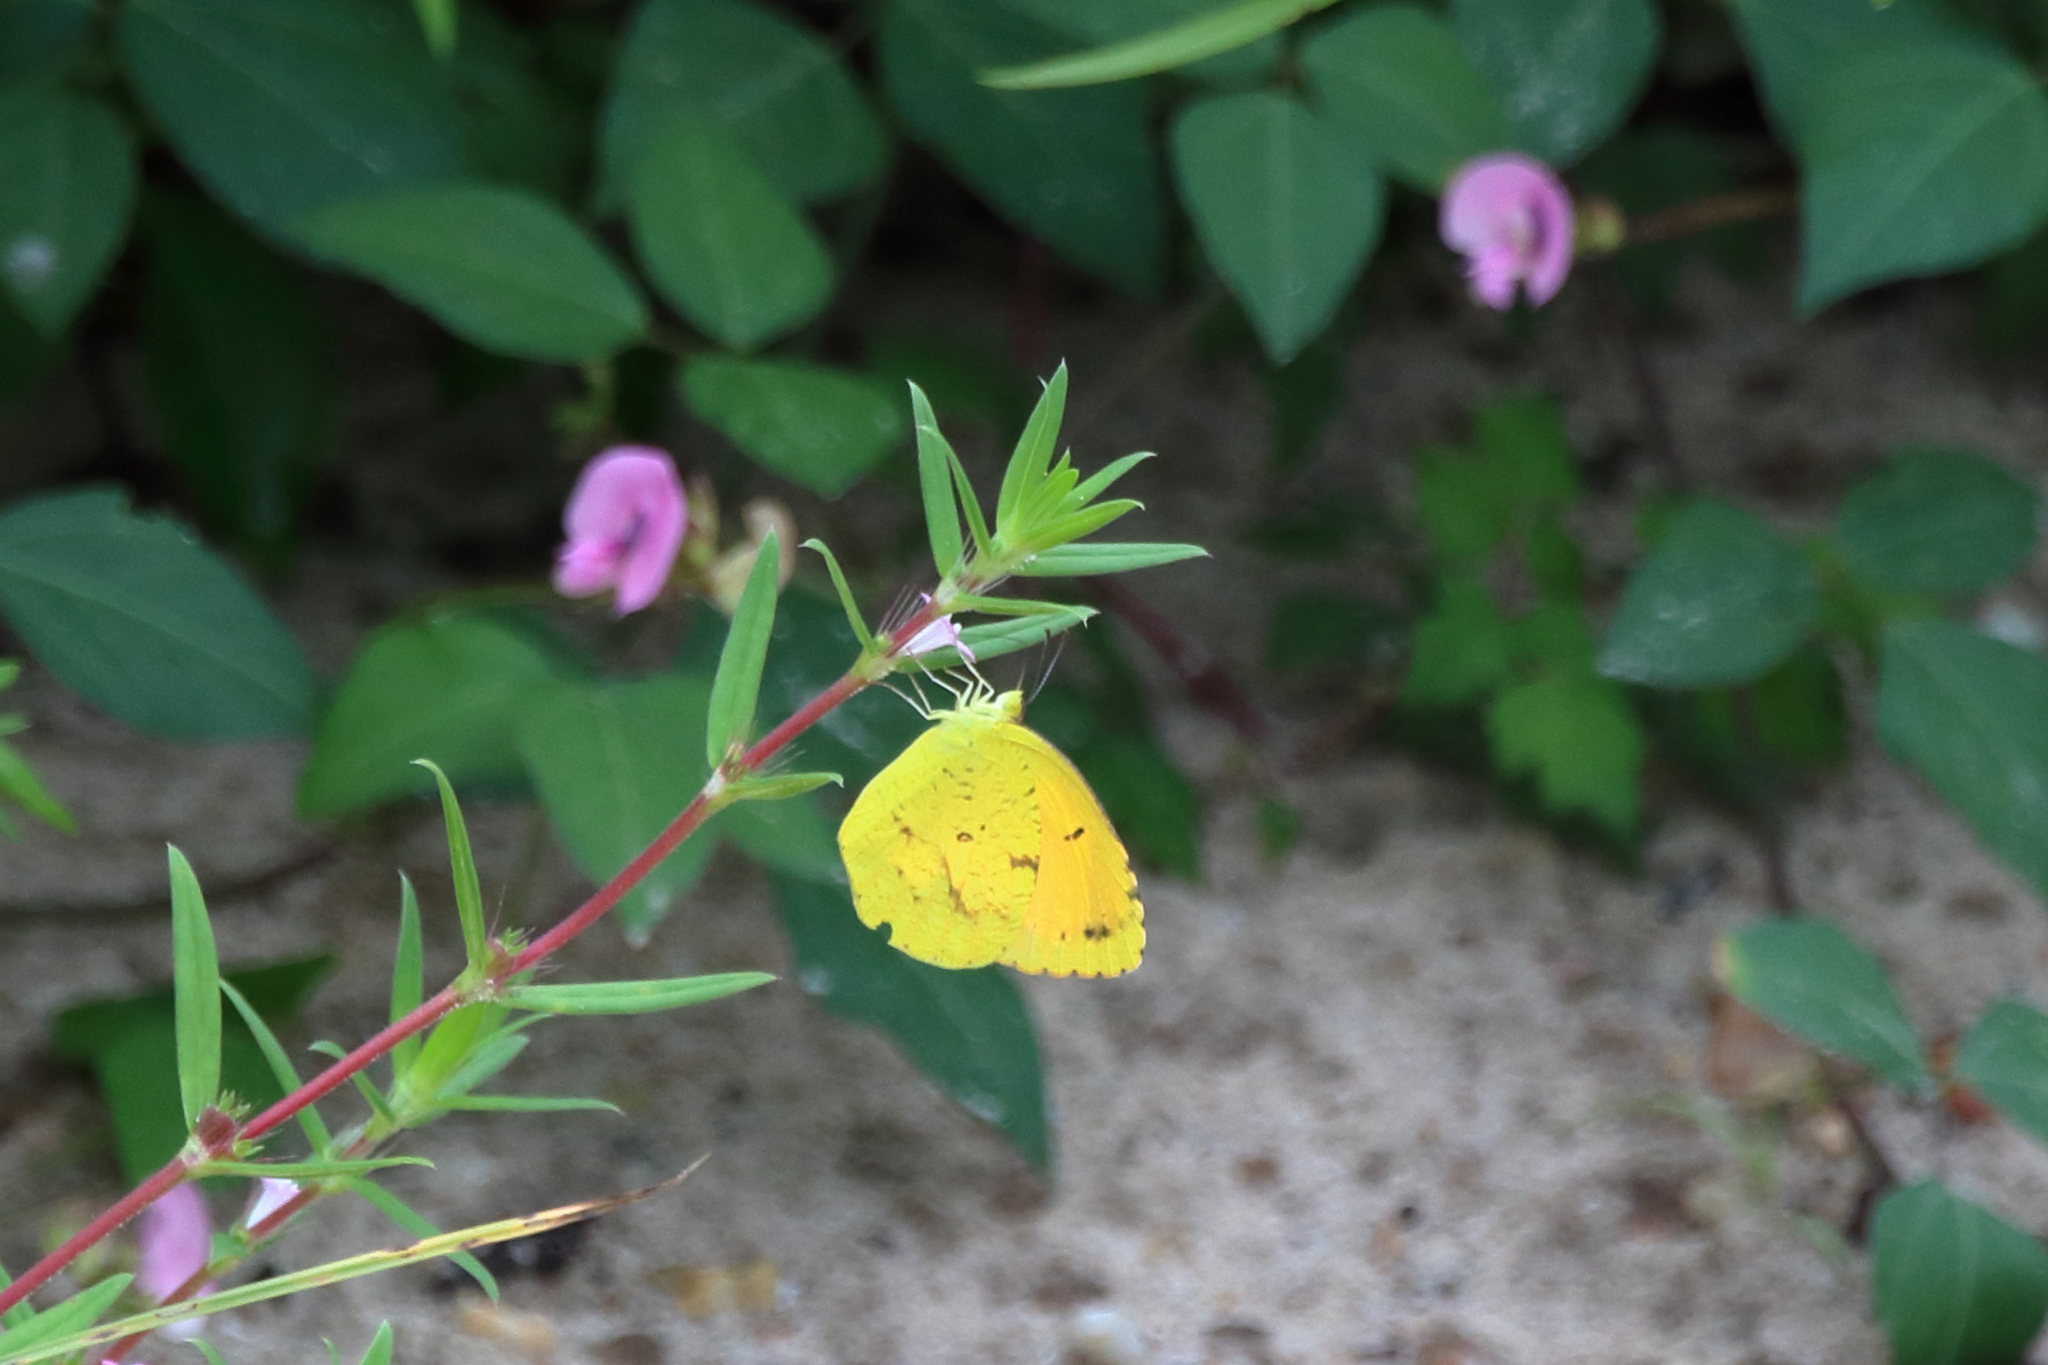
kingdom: Animalia
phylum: Arthropoda
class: Insecta
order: Lepidoptera
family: Pieridae
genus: Abaeis
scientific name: Abaeis nicippe
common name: Sleepy orange
